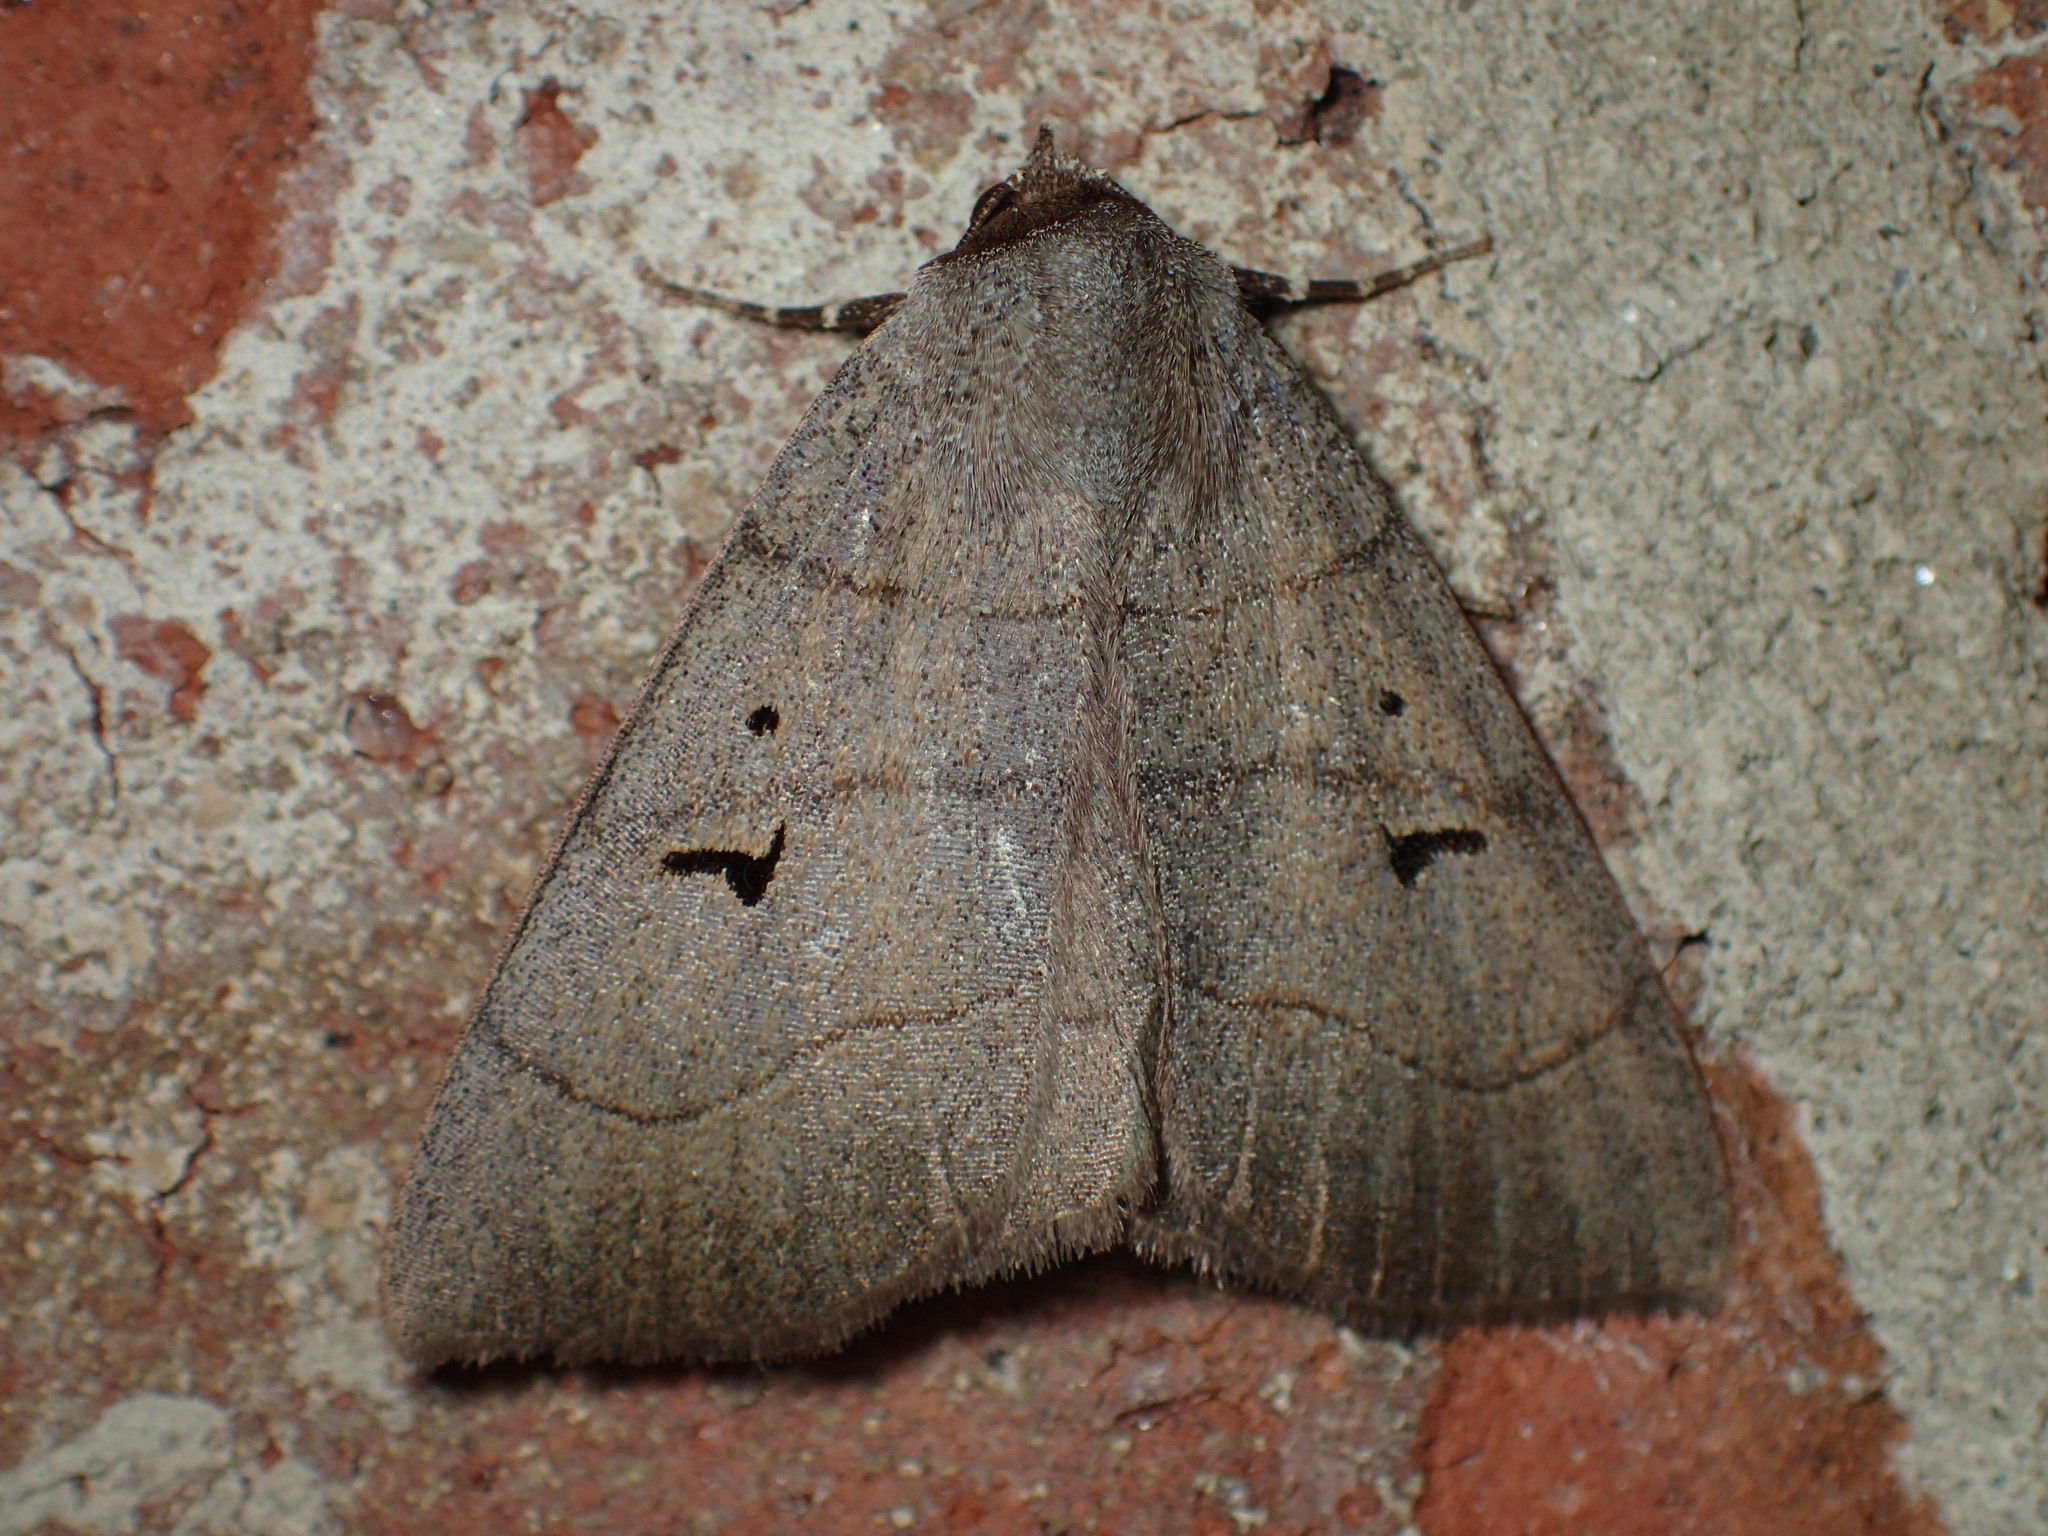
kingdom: Animalia
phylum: Arthropoda
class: Insecta
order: Lepidoptera
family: Erebidae
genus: Panopoda
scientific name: Panopoda carneicosta
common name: Brown panopoda moth
